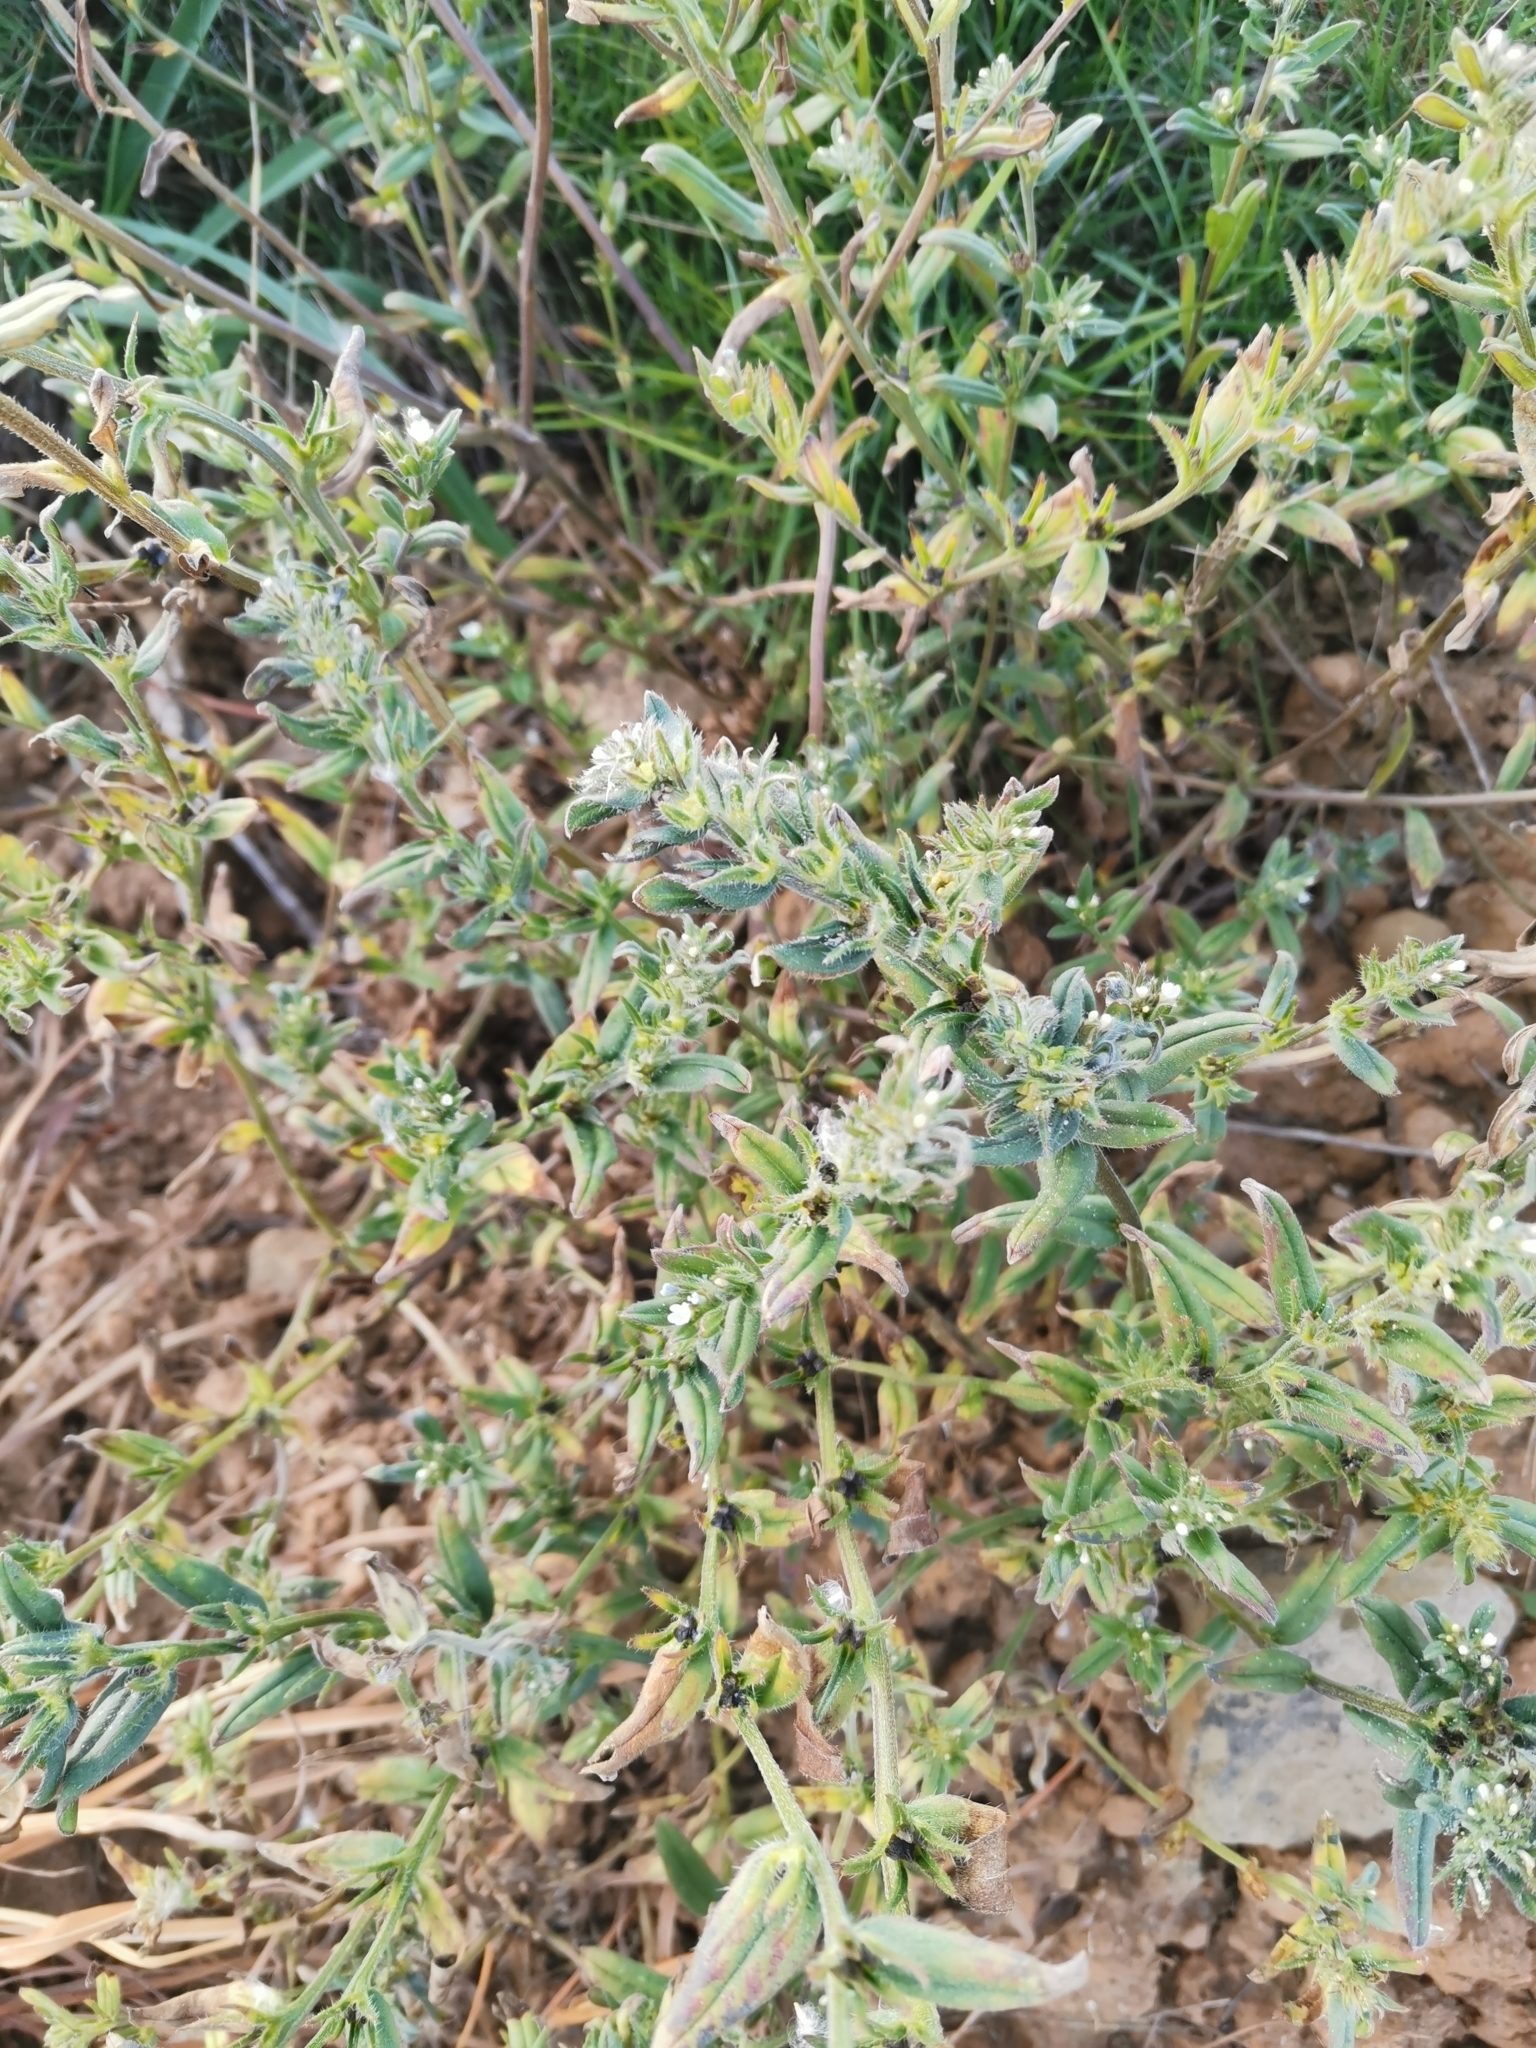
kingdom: Plantae
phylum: Tracheophyta
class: Magnoliopsida
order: Boraginales
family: Boraginaceae
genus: Buglossoides
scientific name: Buglossoides arvensis
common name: Corn gromwell
